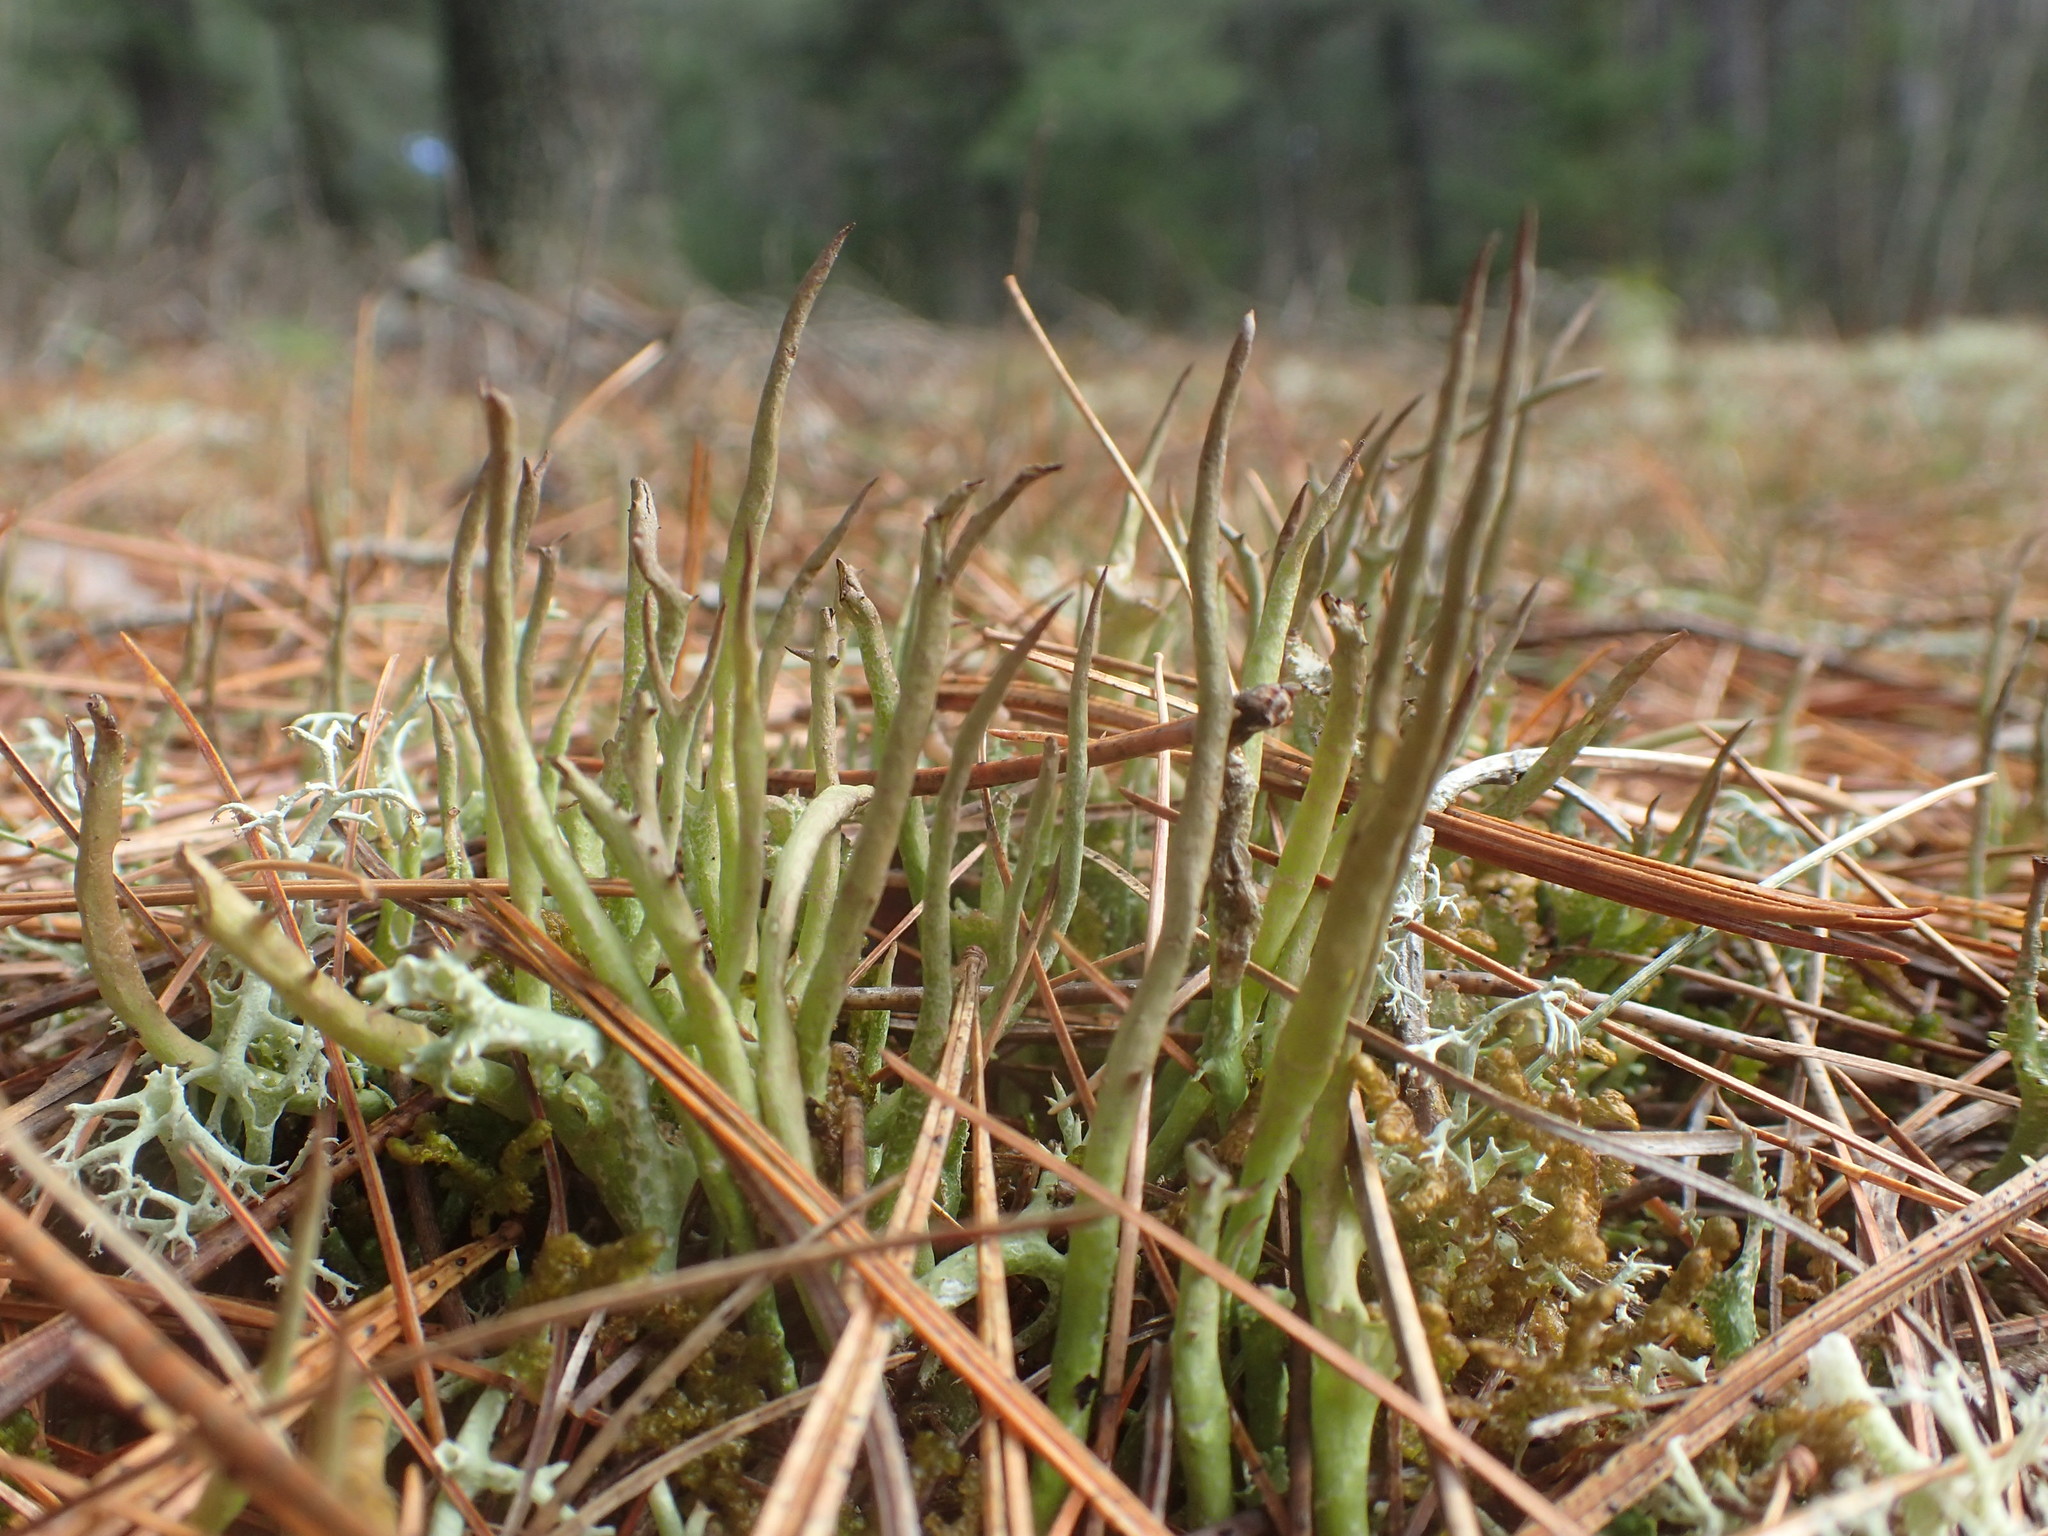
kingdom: Fungi
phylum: Ascomycota
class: Lecanoromycetes
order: Lecanorales
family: Cladoniaceae
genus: Cladonia
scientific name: Cladonia maxima
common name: Giant cladonia lichen
